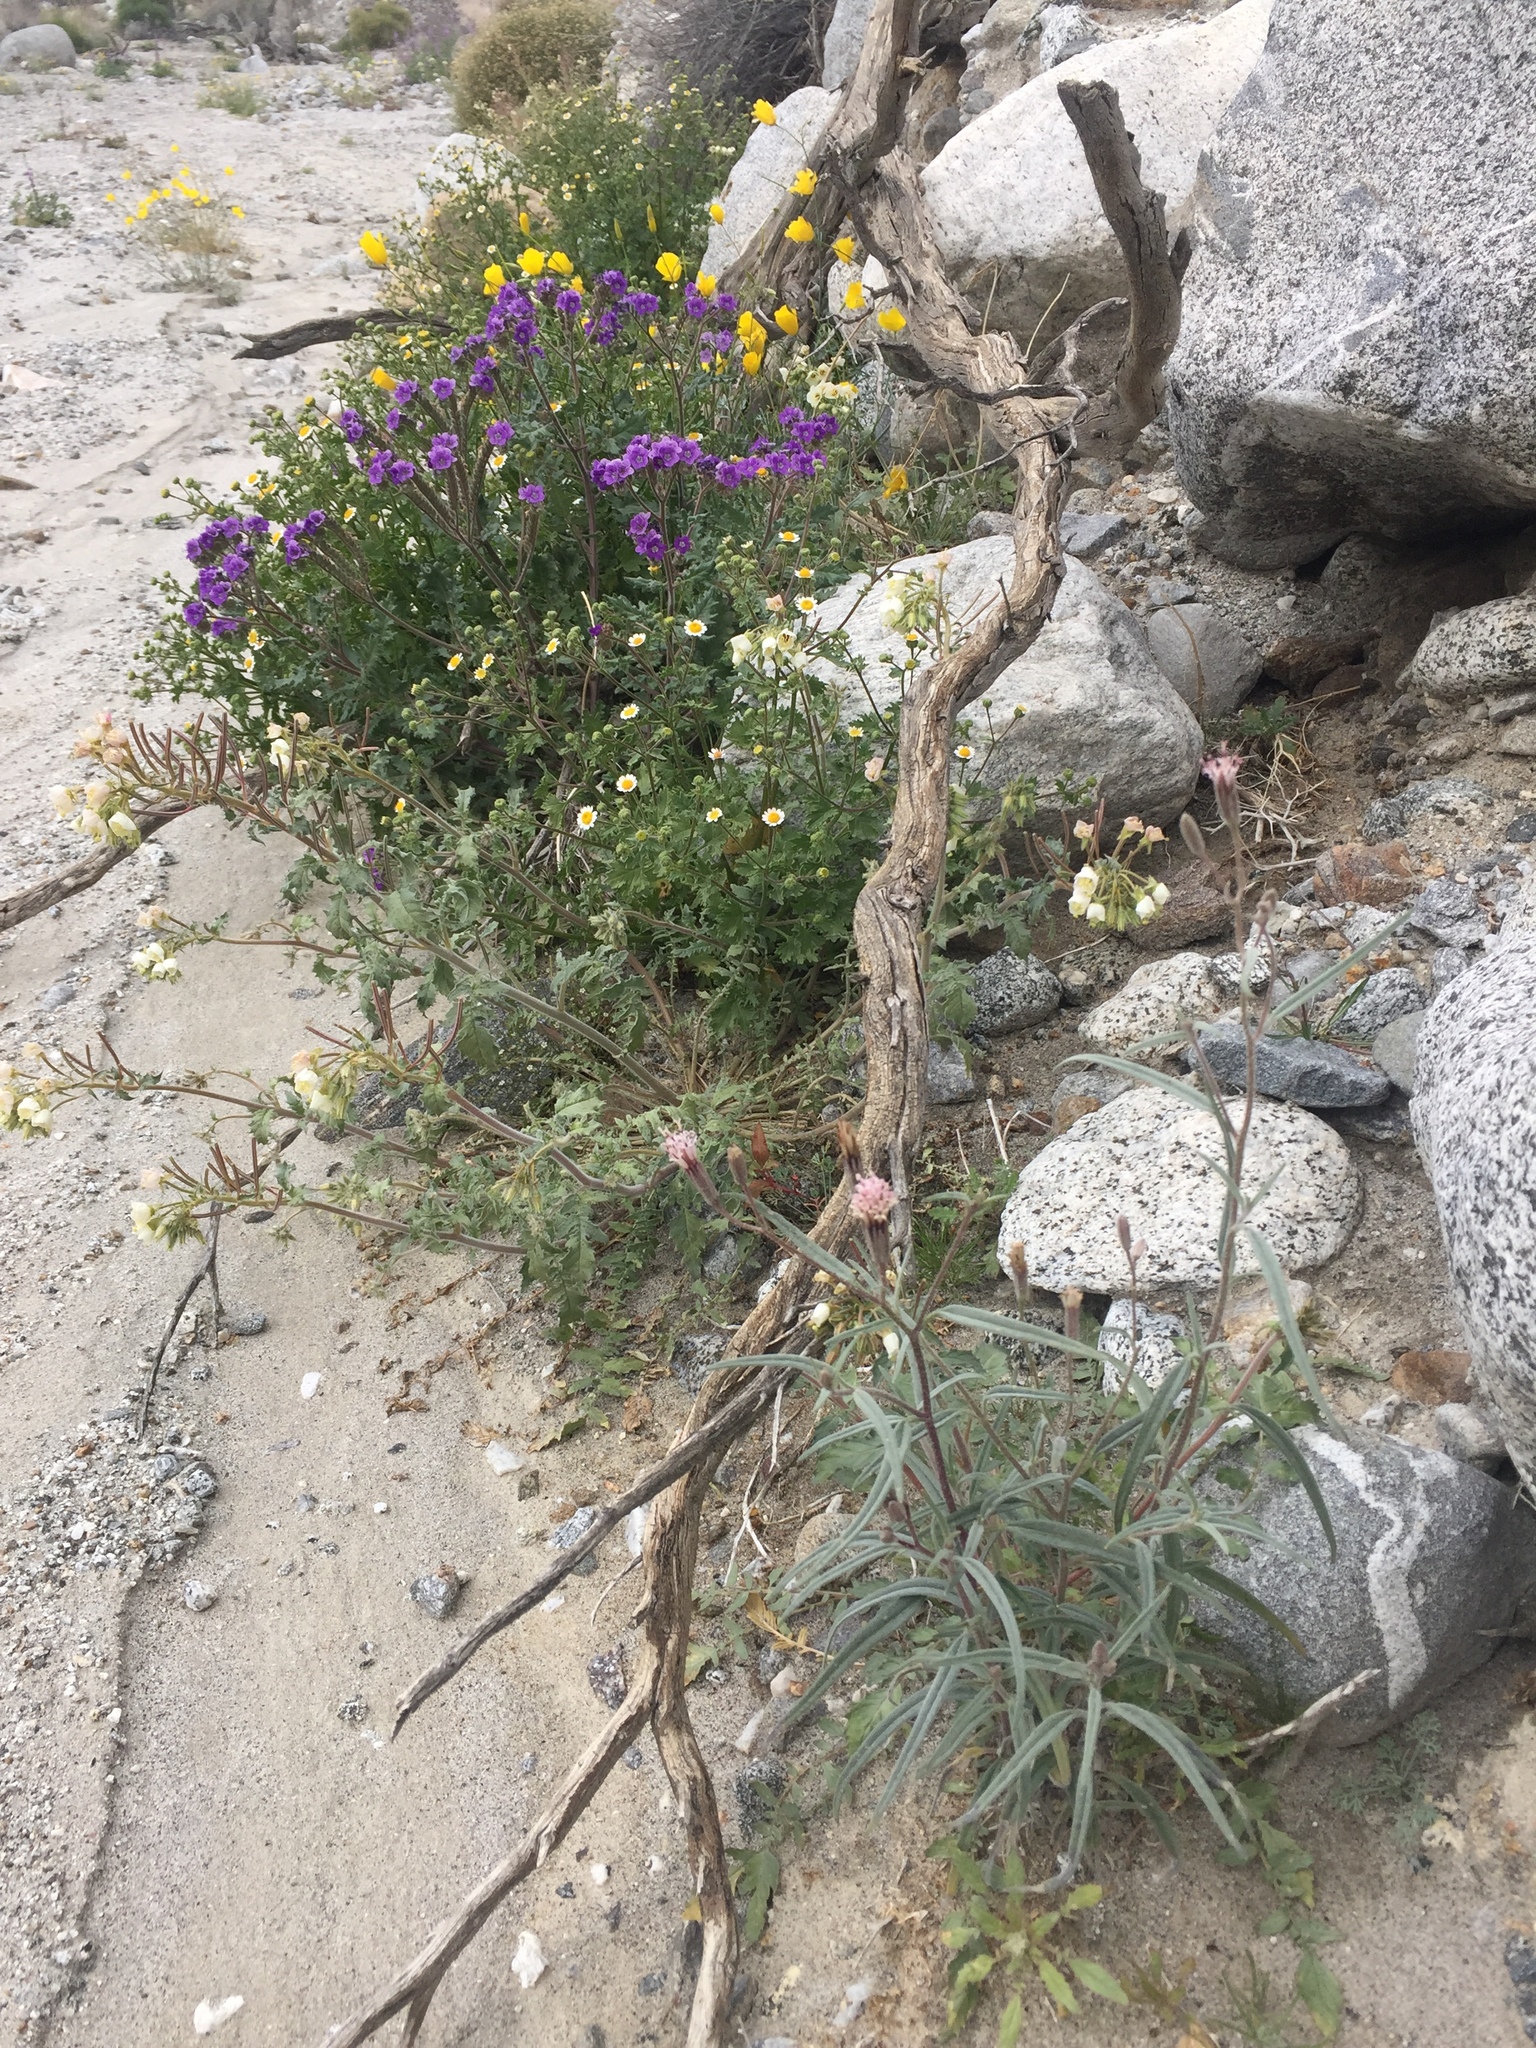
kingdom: Plantae
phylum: Tracheophyta
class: Magnoliopsida
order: Asterales
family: Asteraceae
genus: Palafoxia
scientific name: Palafoxia arida
